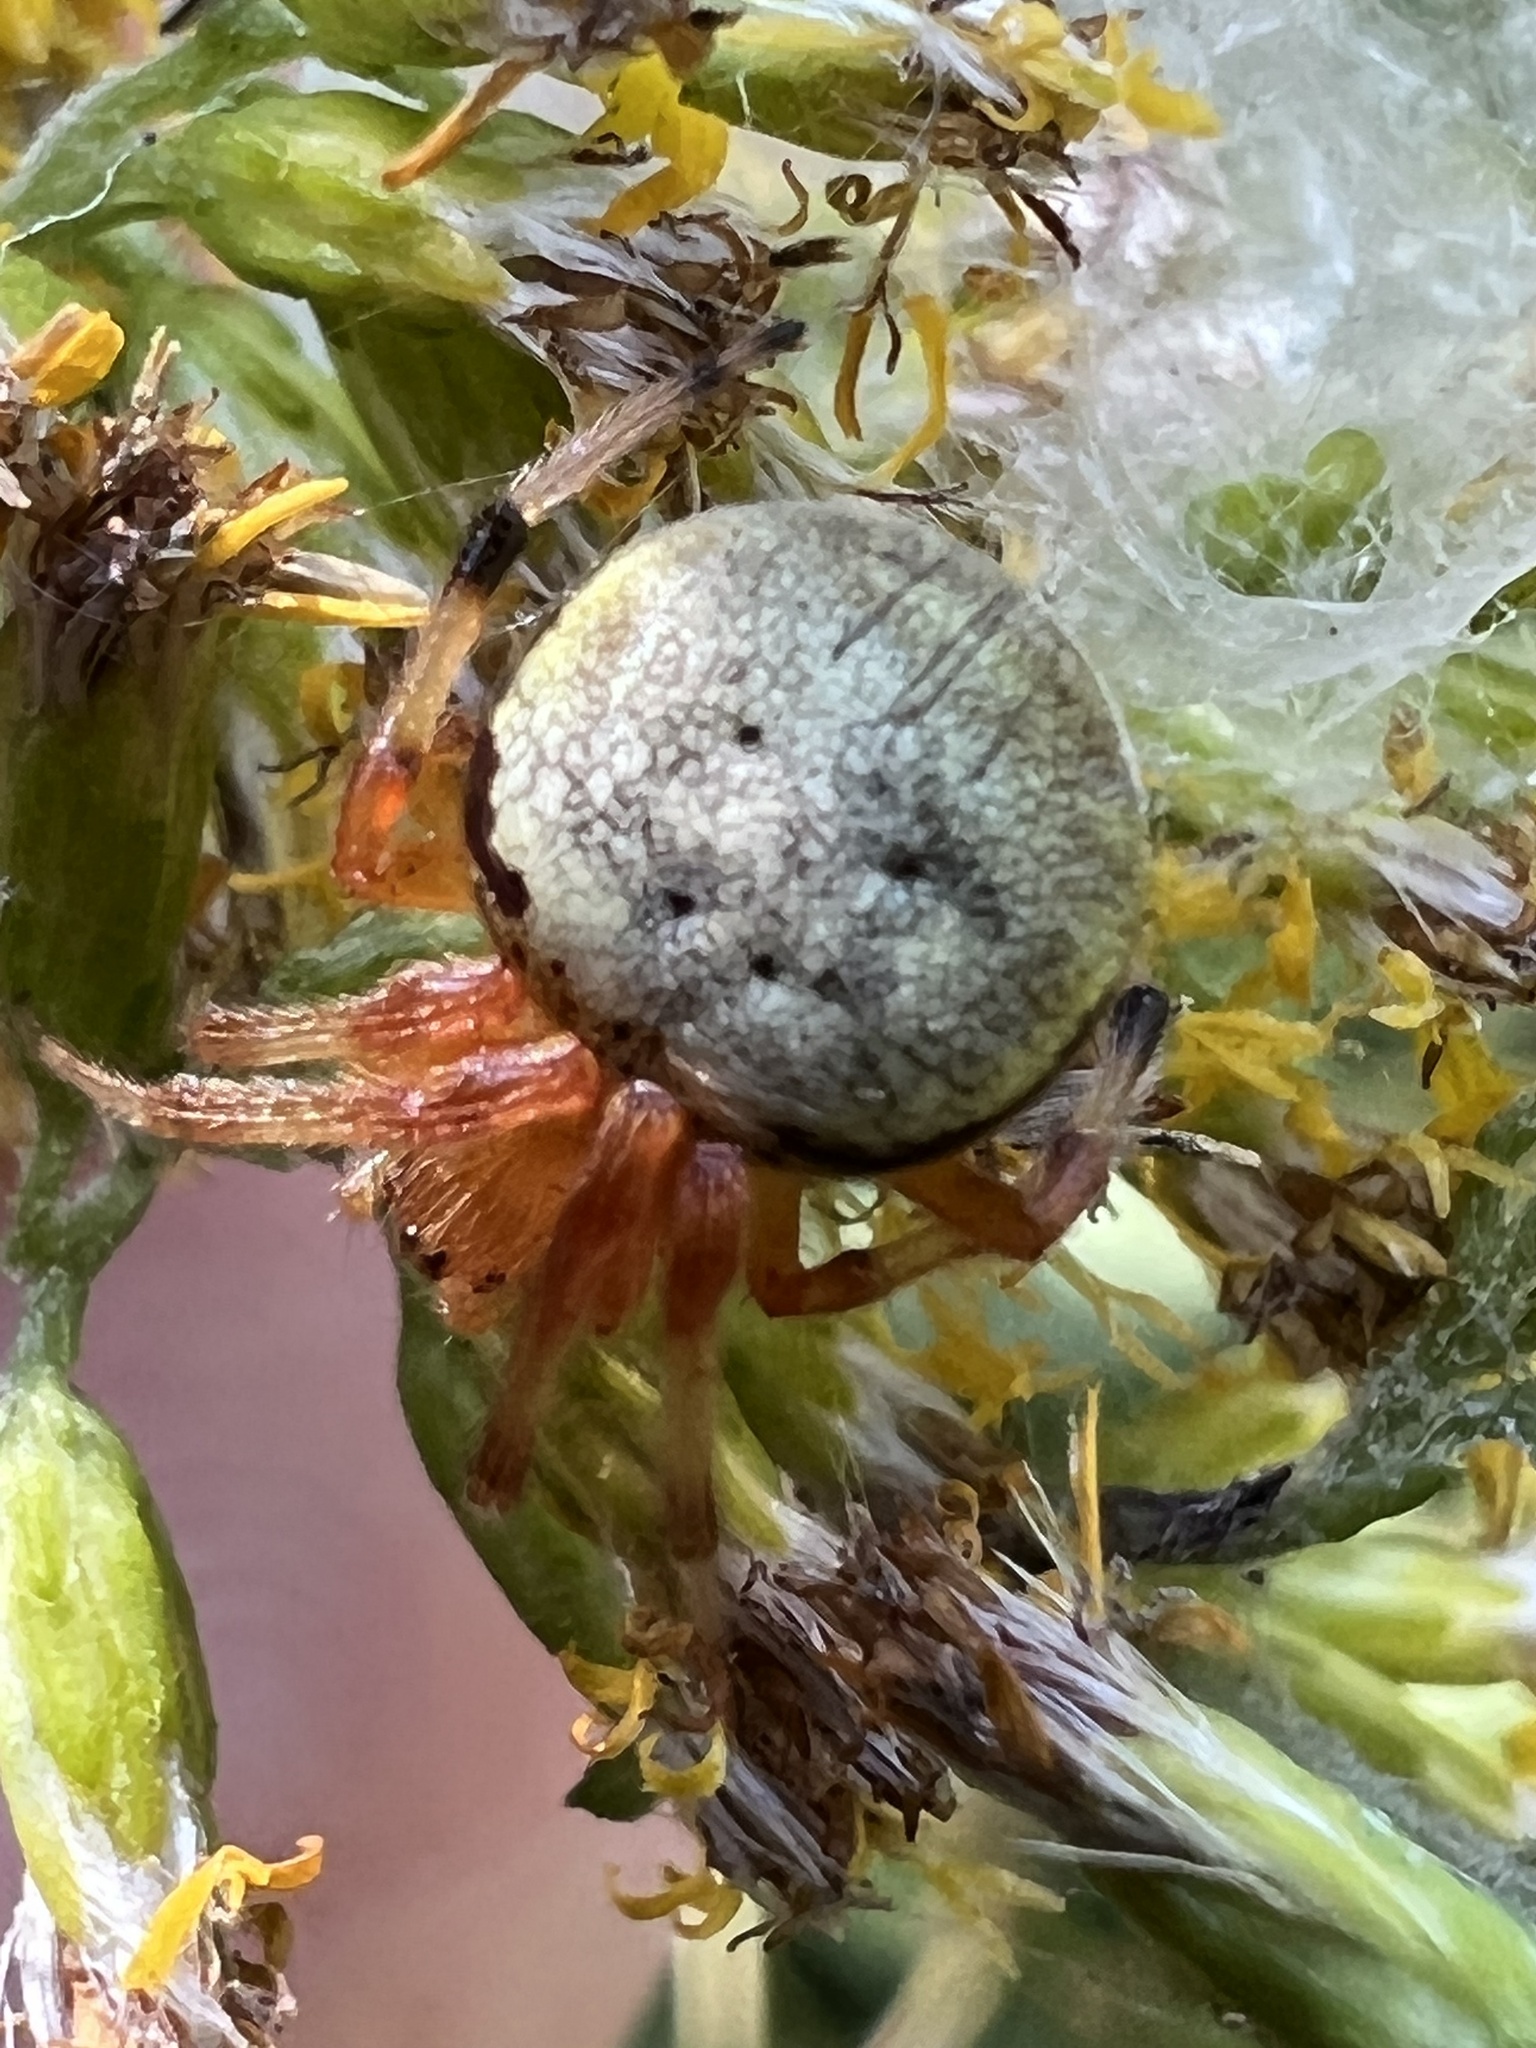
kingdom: Animalia
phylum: Arthropoda
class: Arachnida
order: Araneae
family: Araneidae
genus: Araneus
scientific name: Araneus thaddeus
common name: Lattice orbweaver
